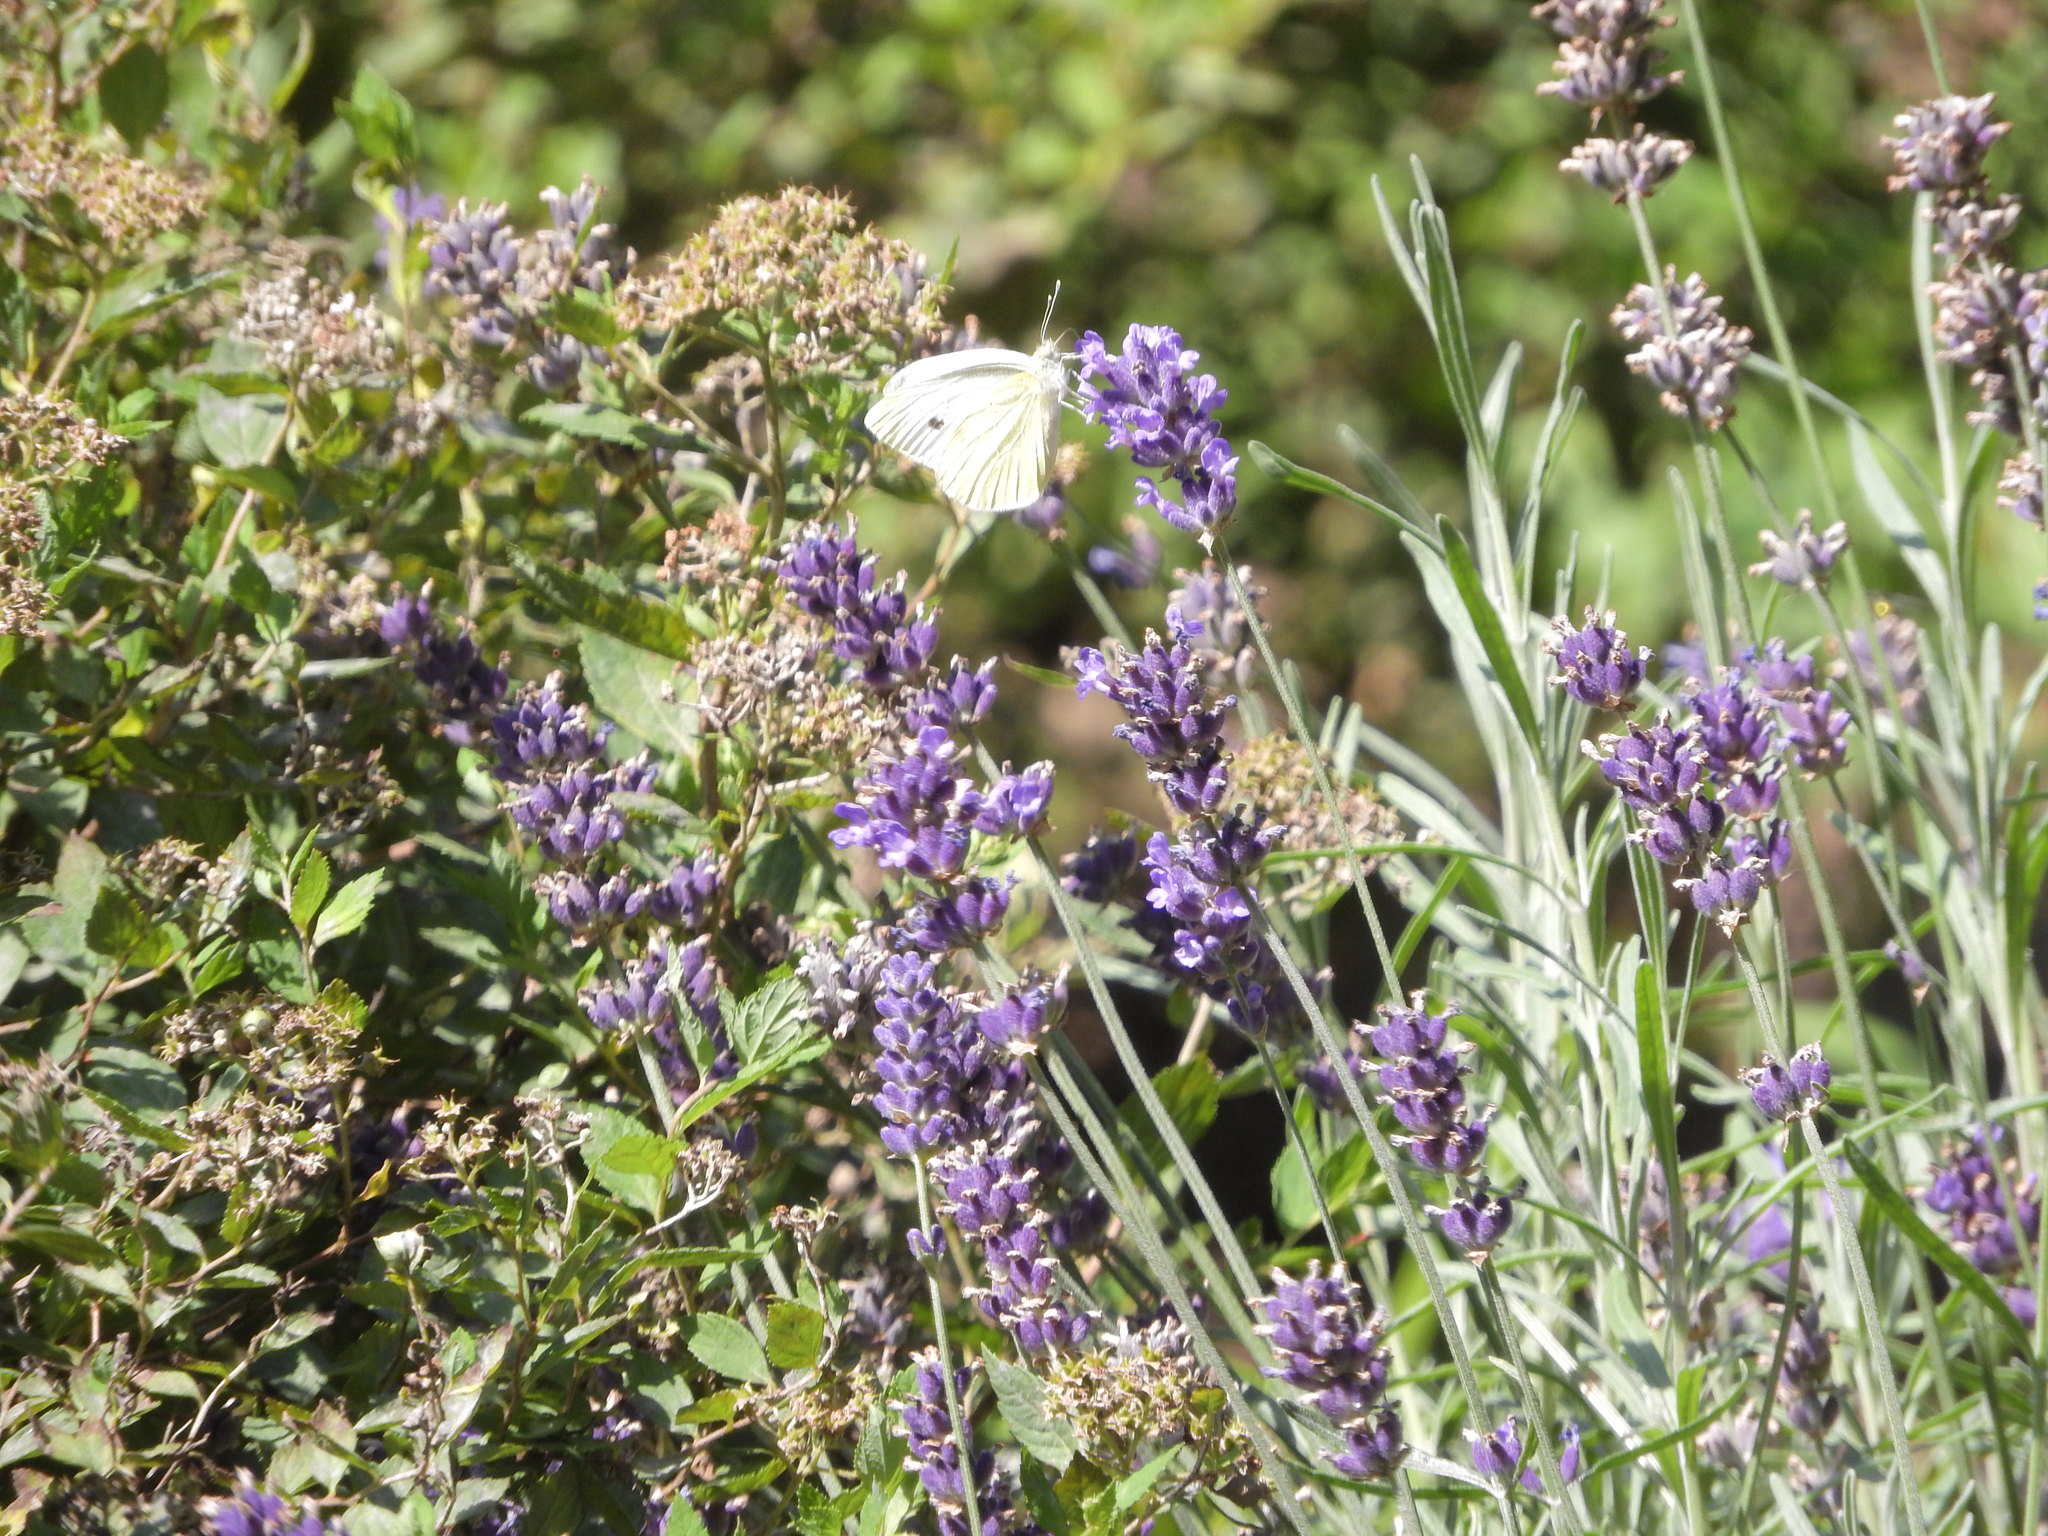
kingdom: Animalia
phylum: Arthropoda
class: Insecta
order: Lepidoptera
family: Pieridae
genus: Pieris
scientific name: Pieris rapae
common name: Small white
